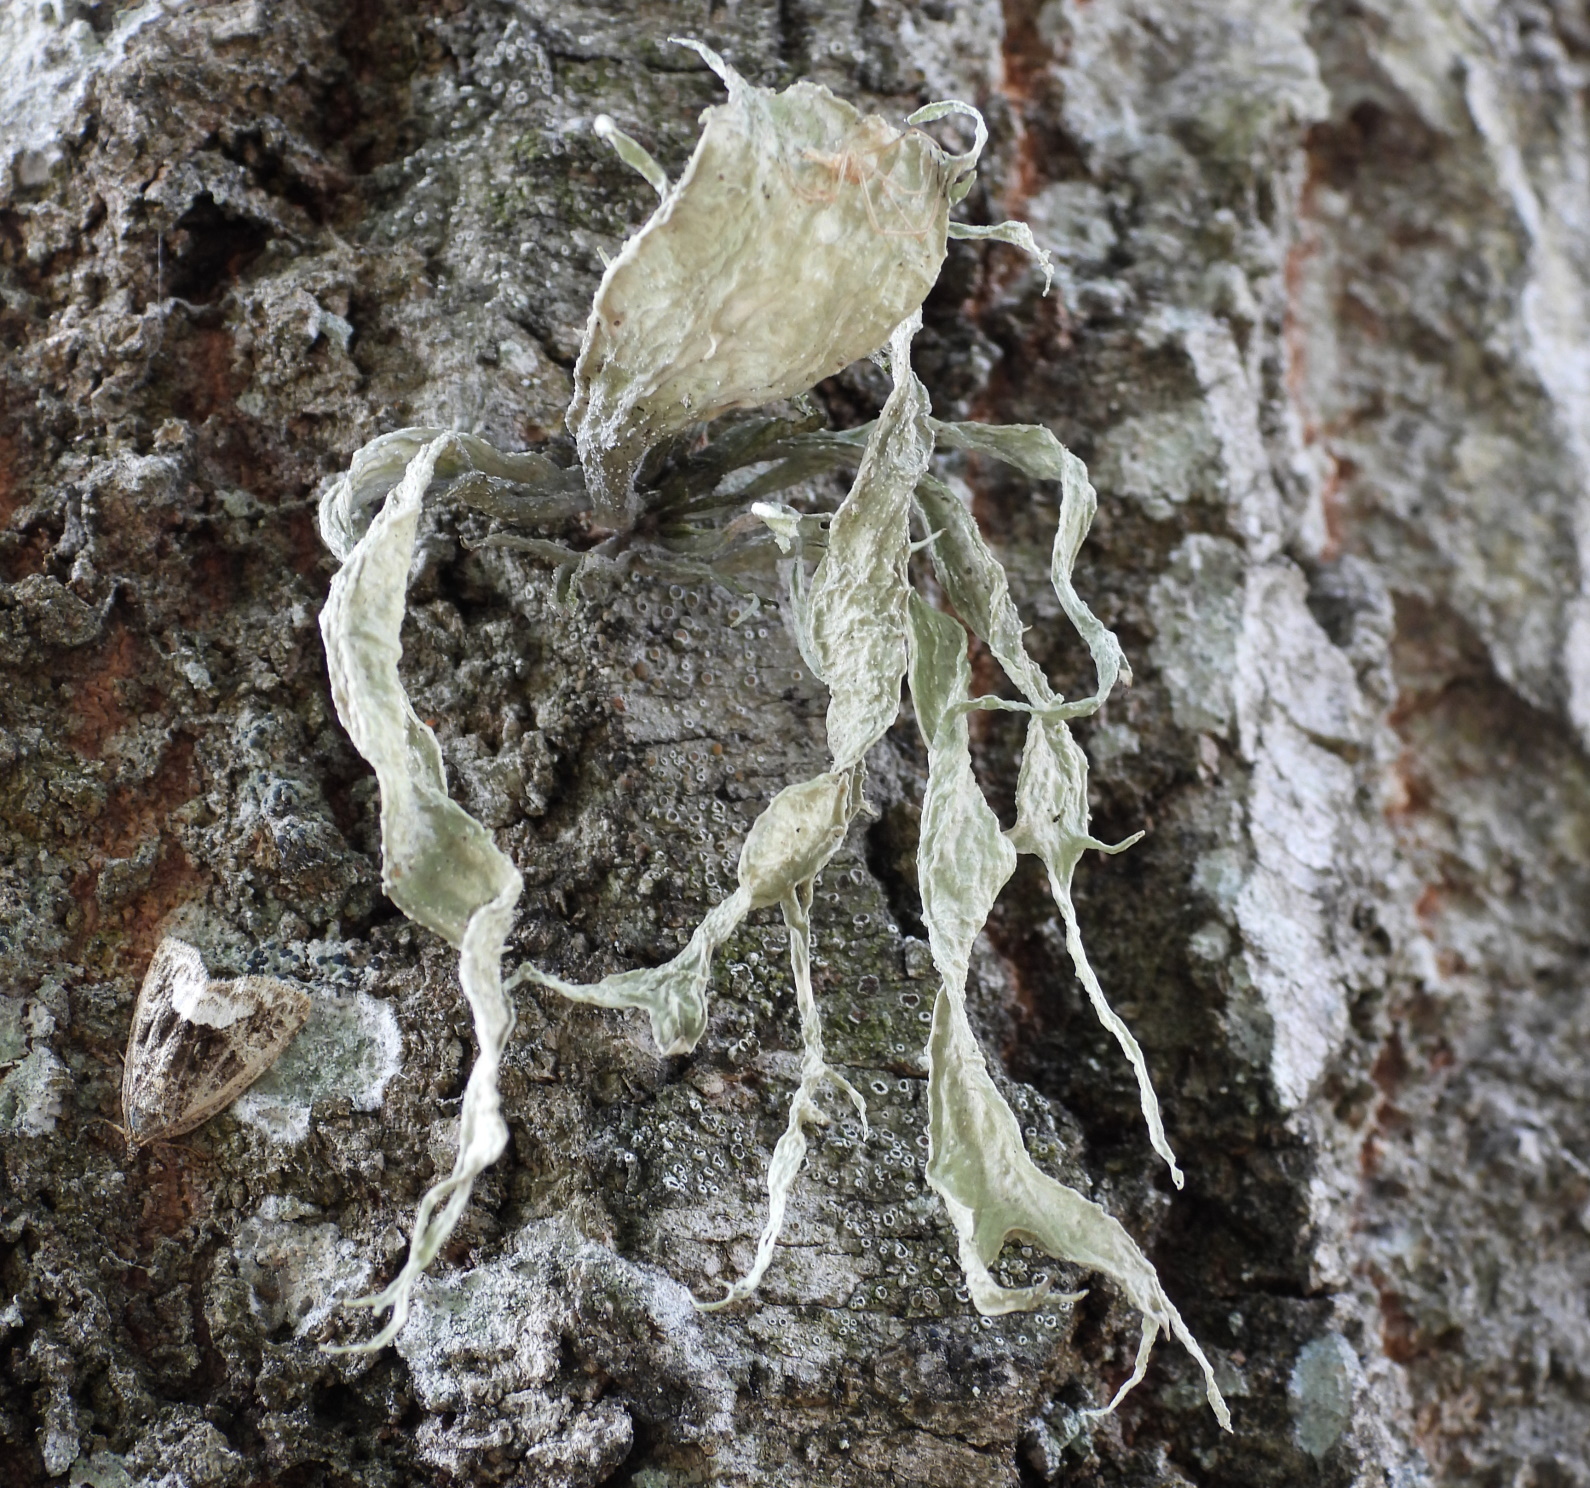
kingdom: Fungi
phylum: Ascomycota
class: Lecanoromycetes
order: Lecanorales
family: Ramalinaceae
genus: Ramalina
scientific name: Ramalina fraxinea
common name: Cartilage lichen
